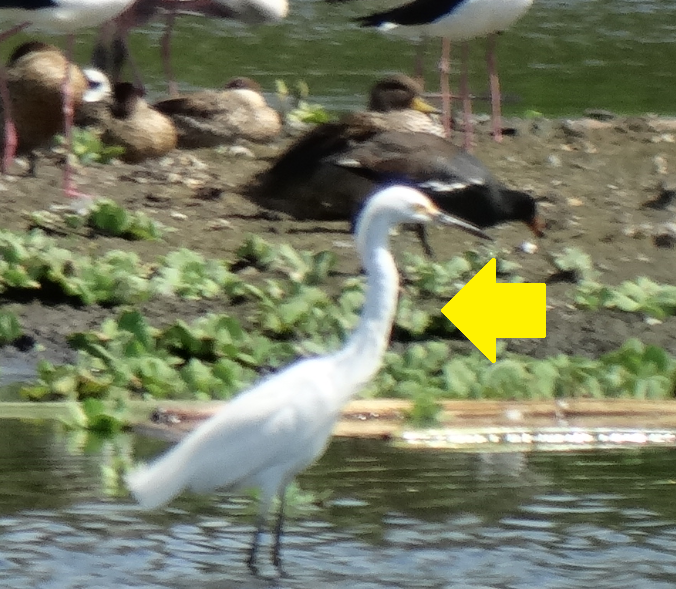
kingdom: Animalia
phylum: Chordata
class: Aves
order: Pelecaniformes
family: Ardeidae
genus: Egretta
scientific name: Egretta thula
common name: Snowy egret
